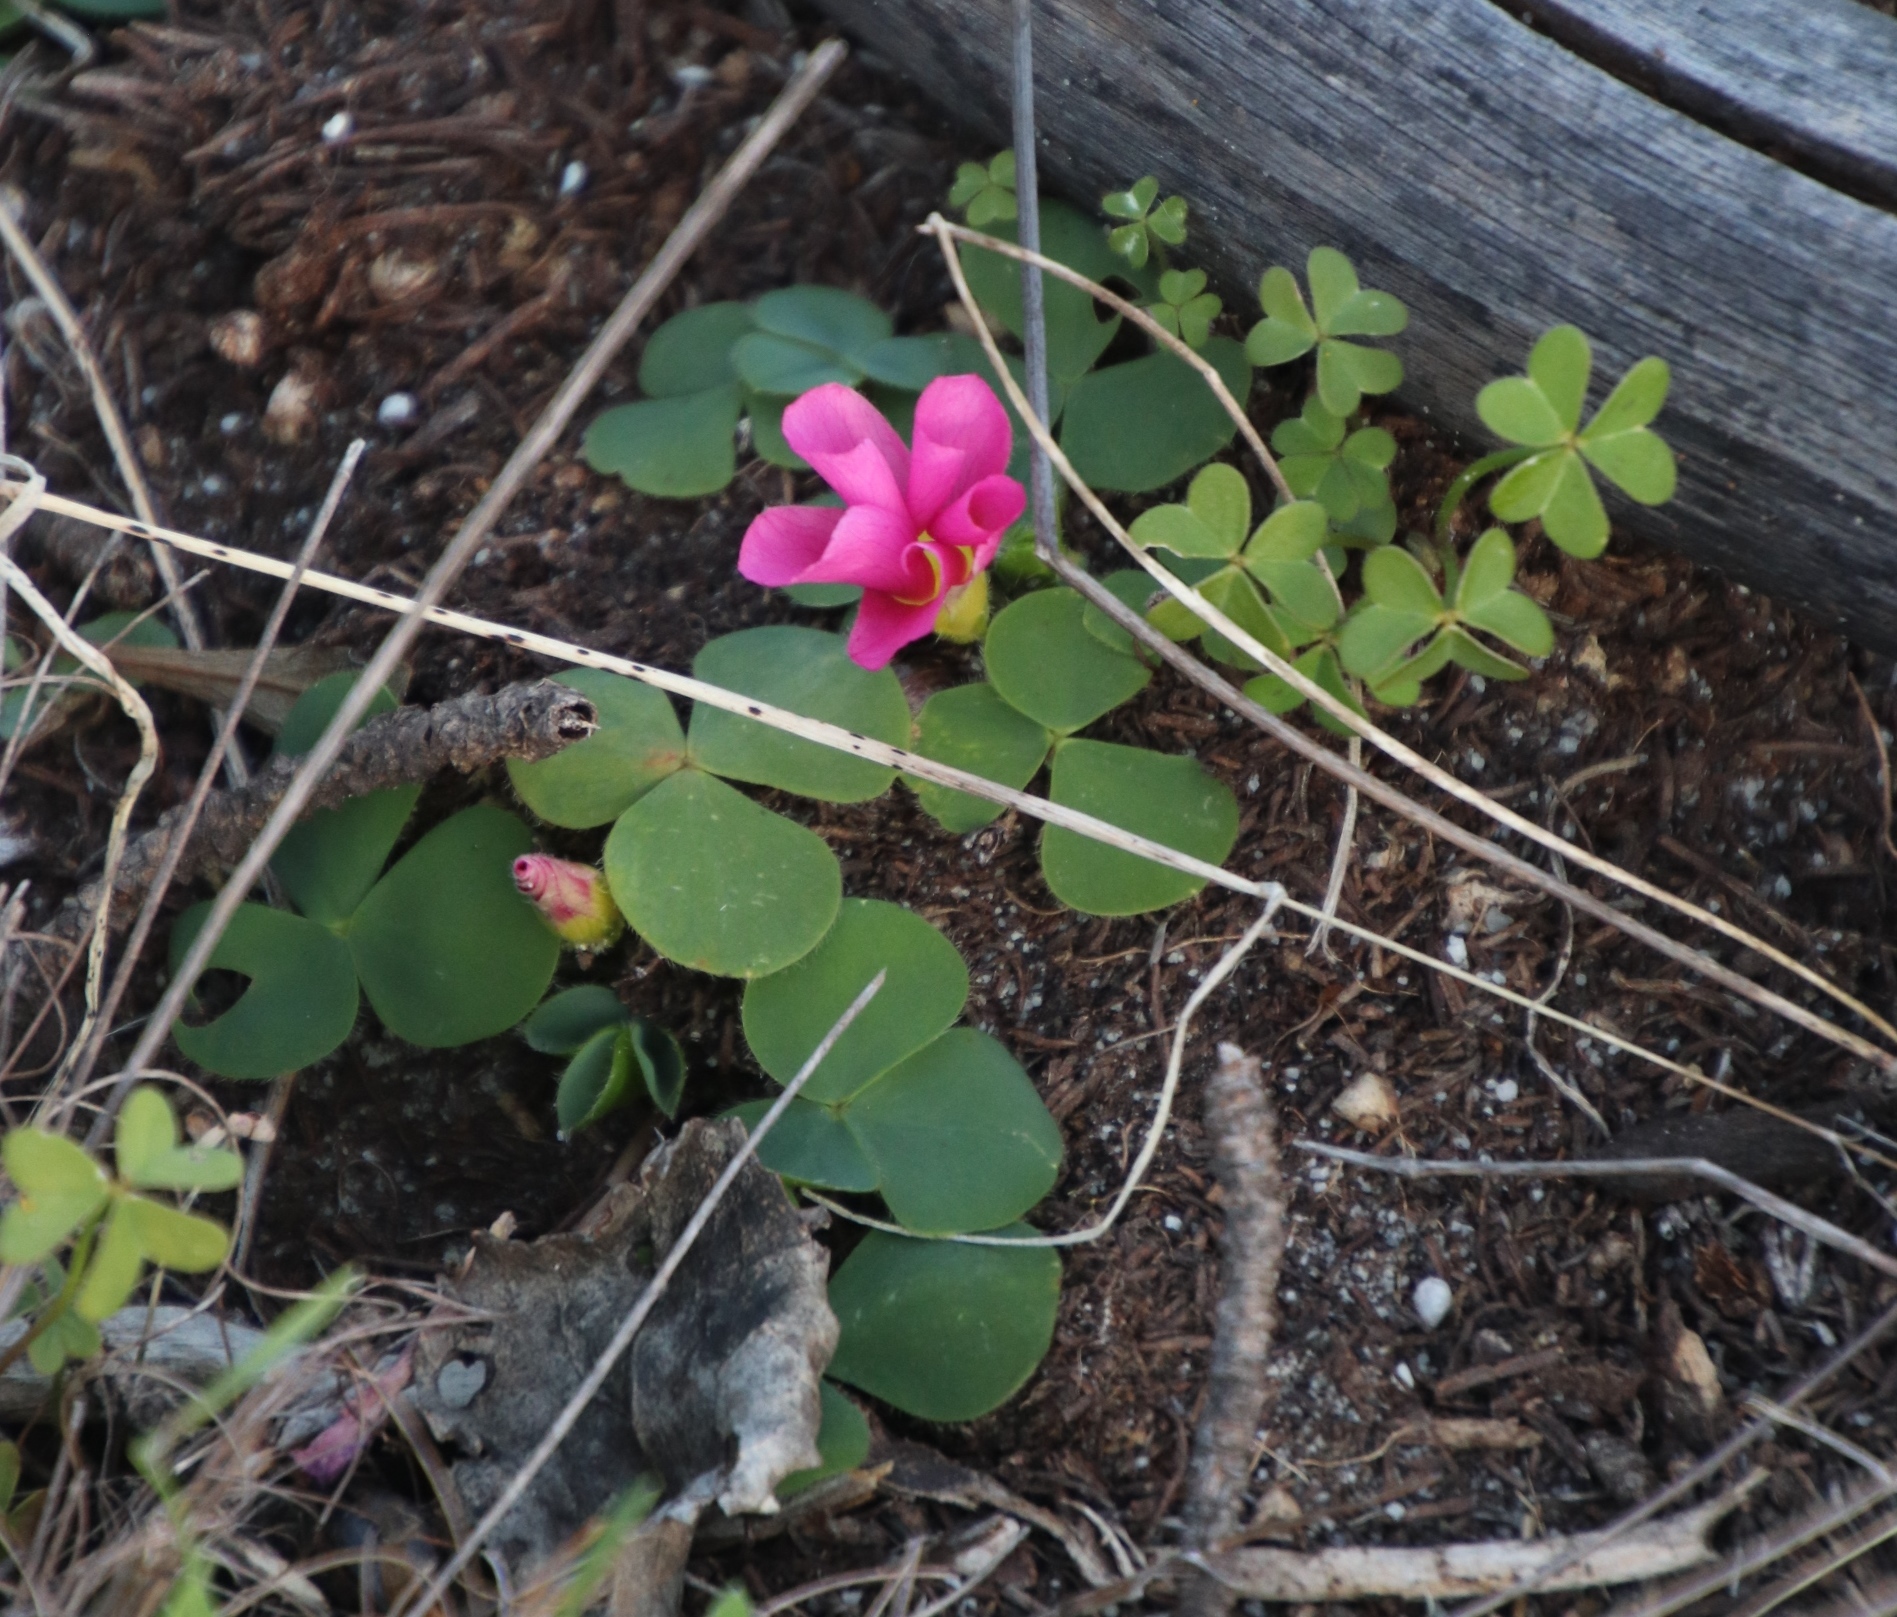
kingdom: Plantae
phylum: Tracheophyta
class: Magnoliopsida
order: Oxalidales
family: Oxalidaceae
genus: Oxalis
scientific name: Oxalis purpurea
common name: Purple woodsorrel
